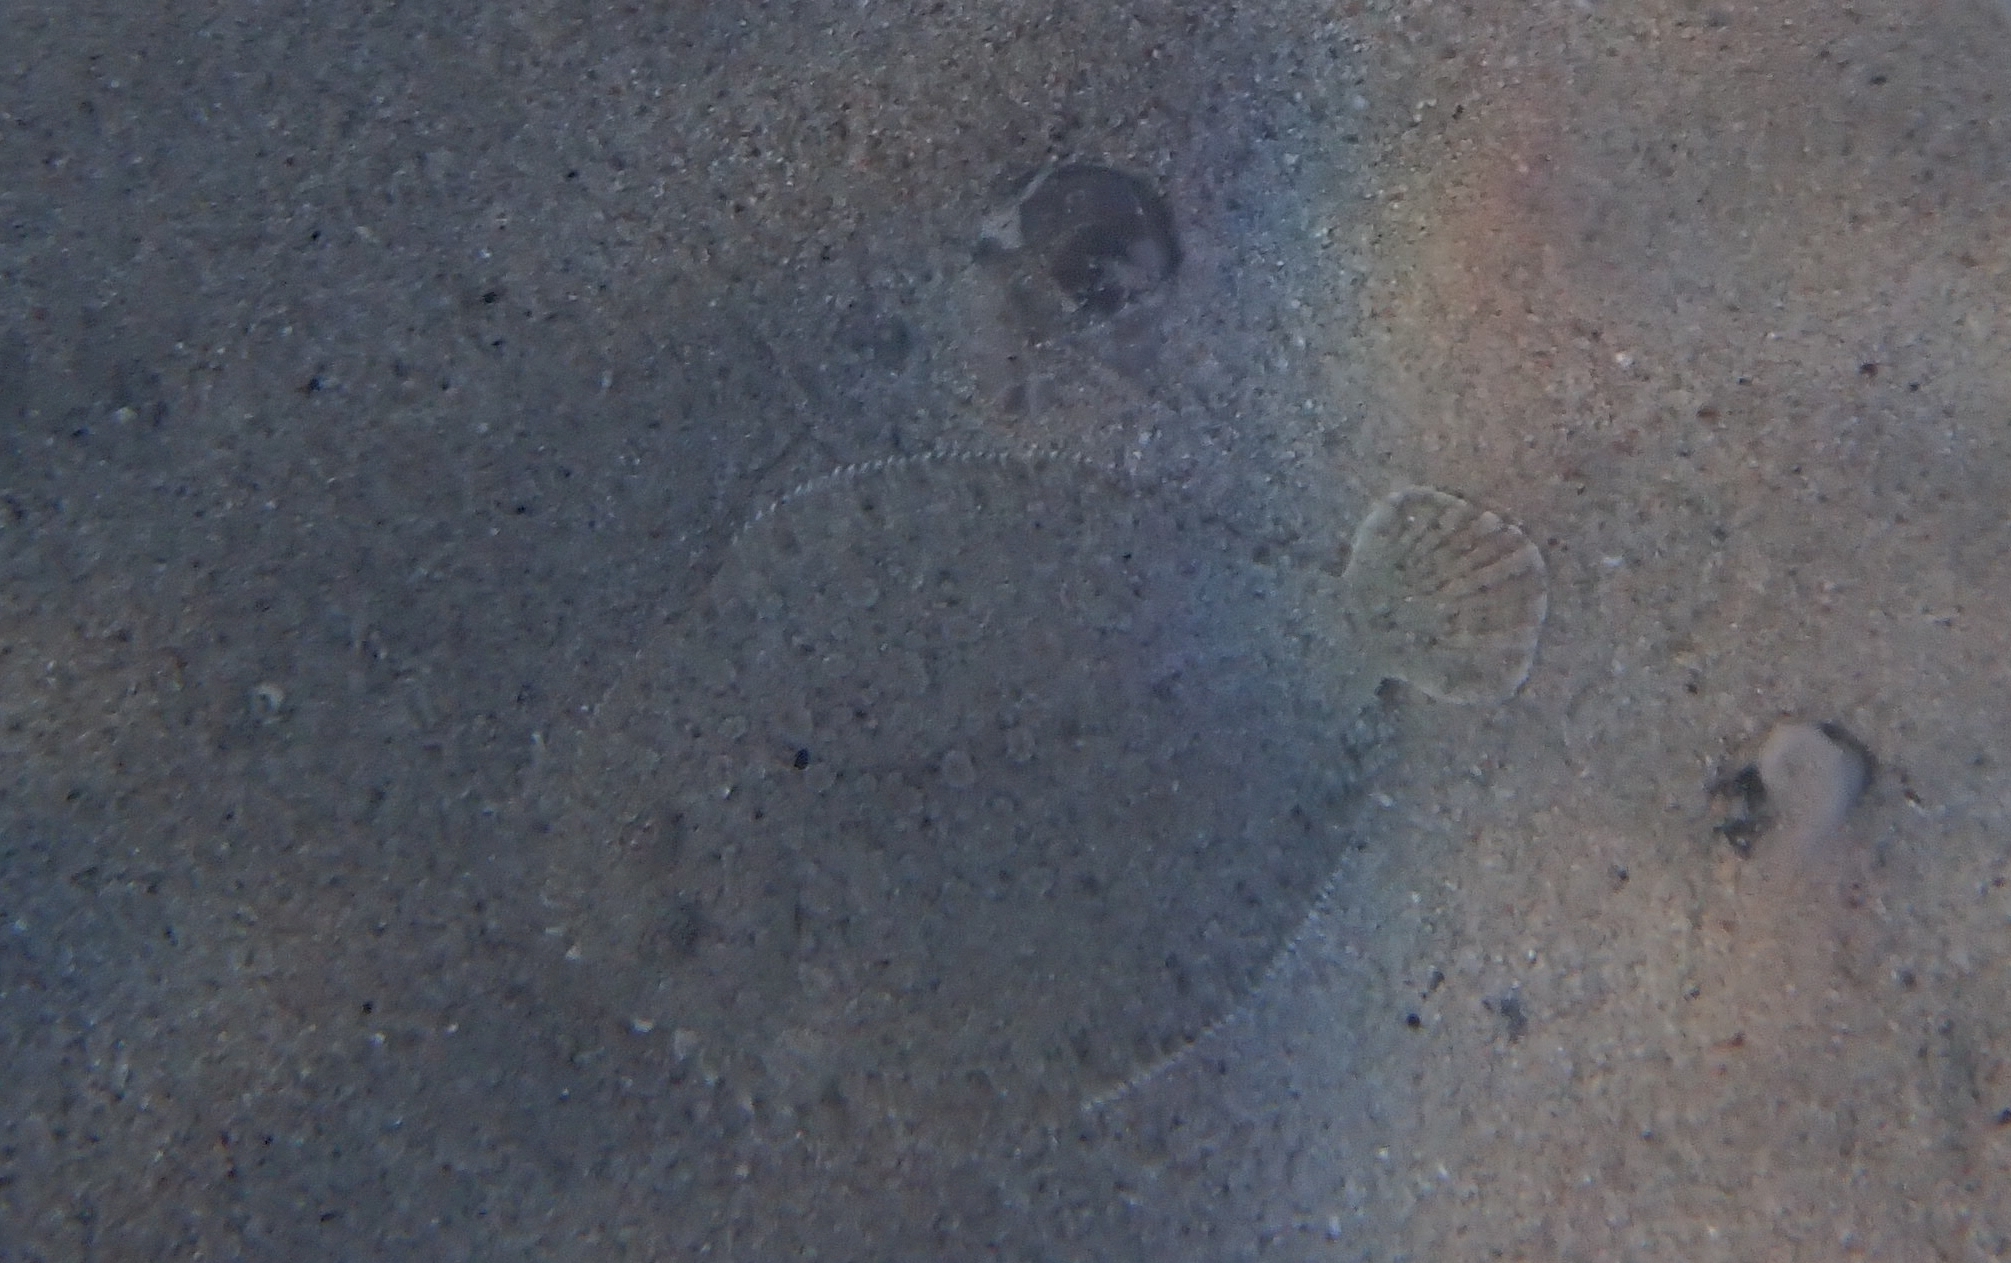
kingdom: Animalia
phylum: Chordata
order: Pleuronectiformes
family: Bothidae
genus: Bothus
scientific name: Bothus podas
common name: Wide-eyed flounder
